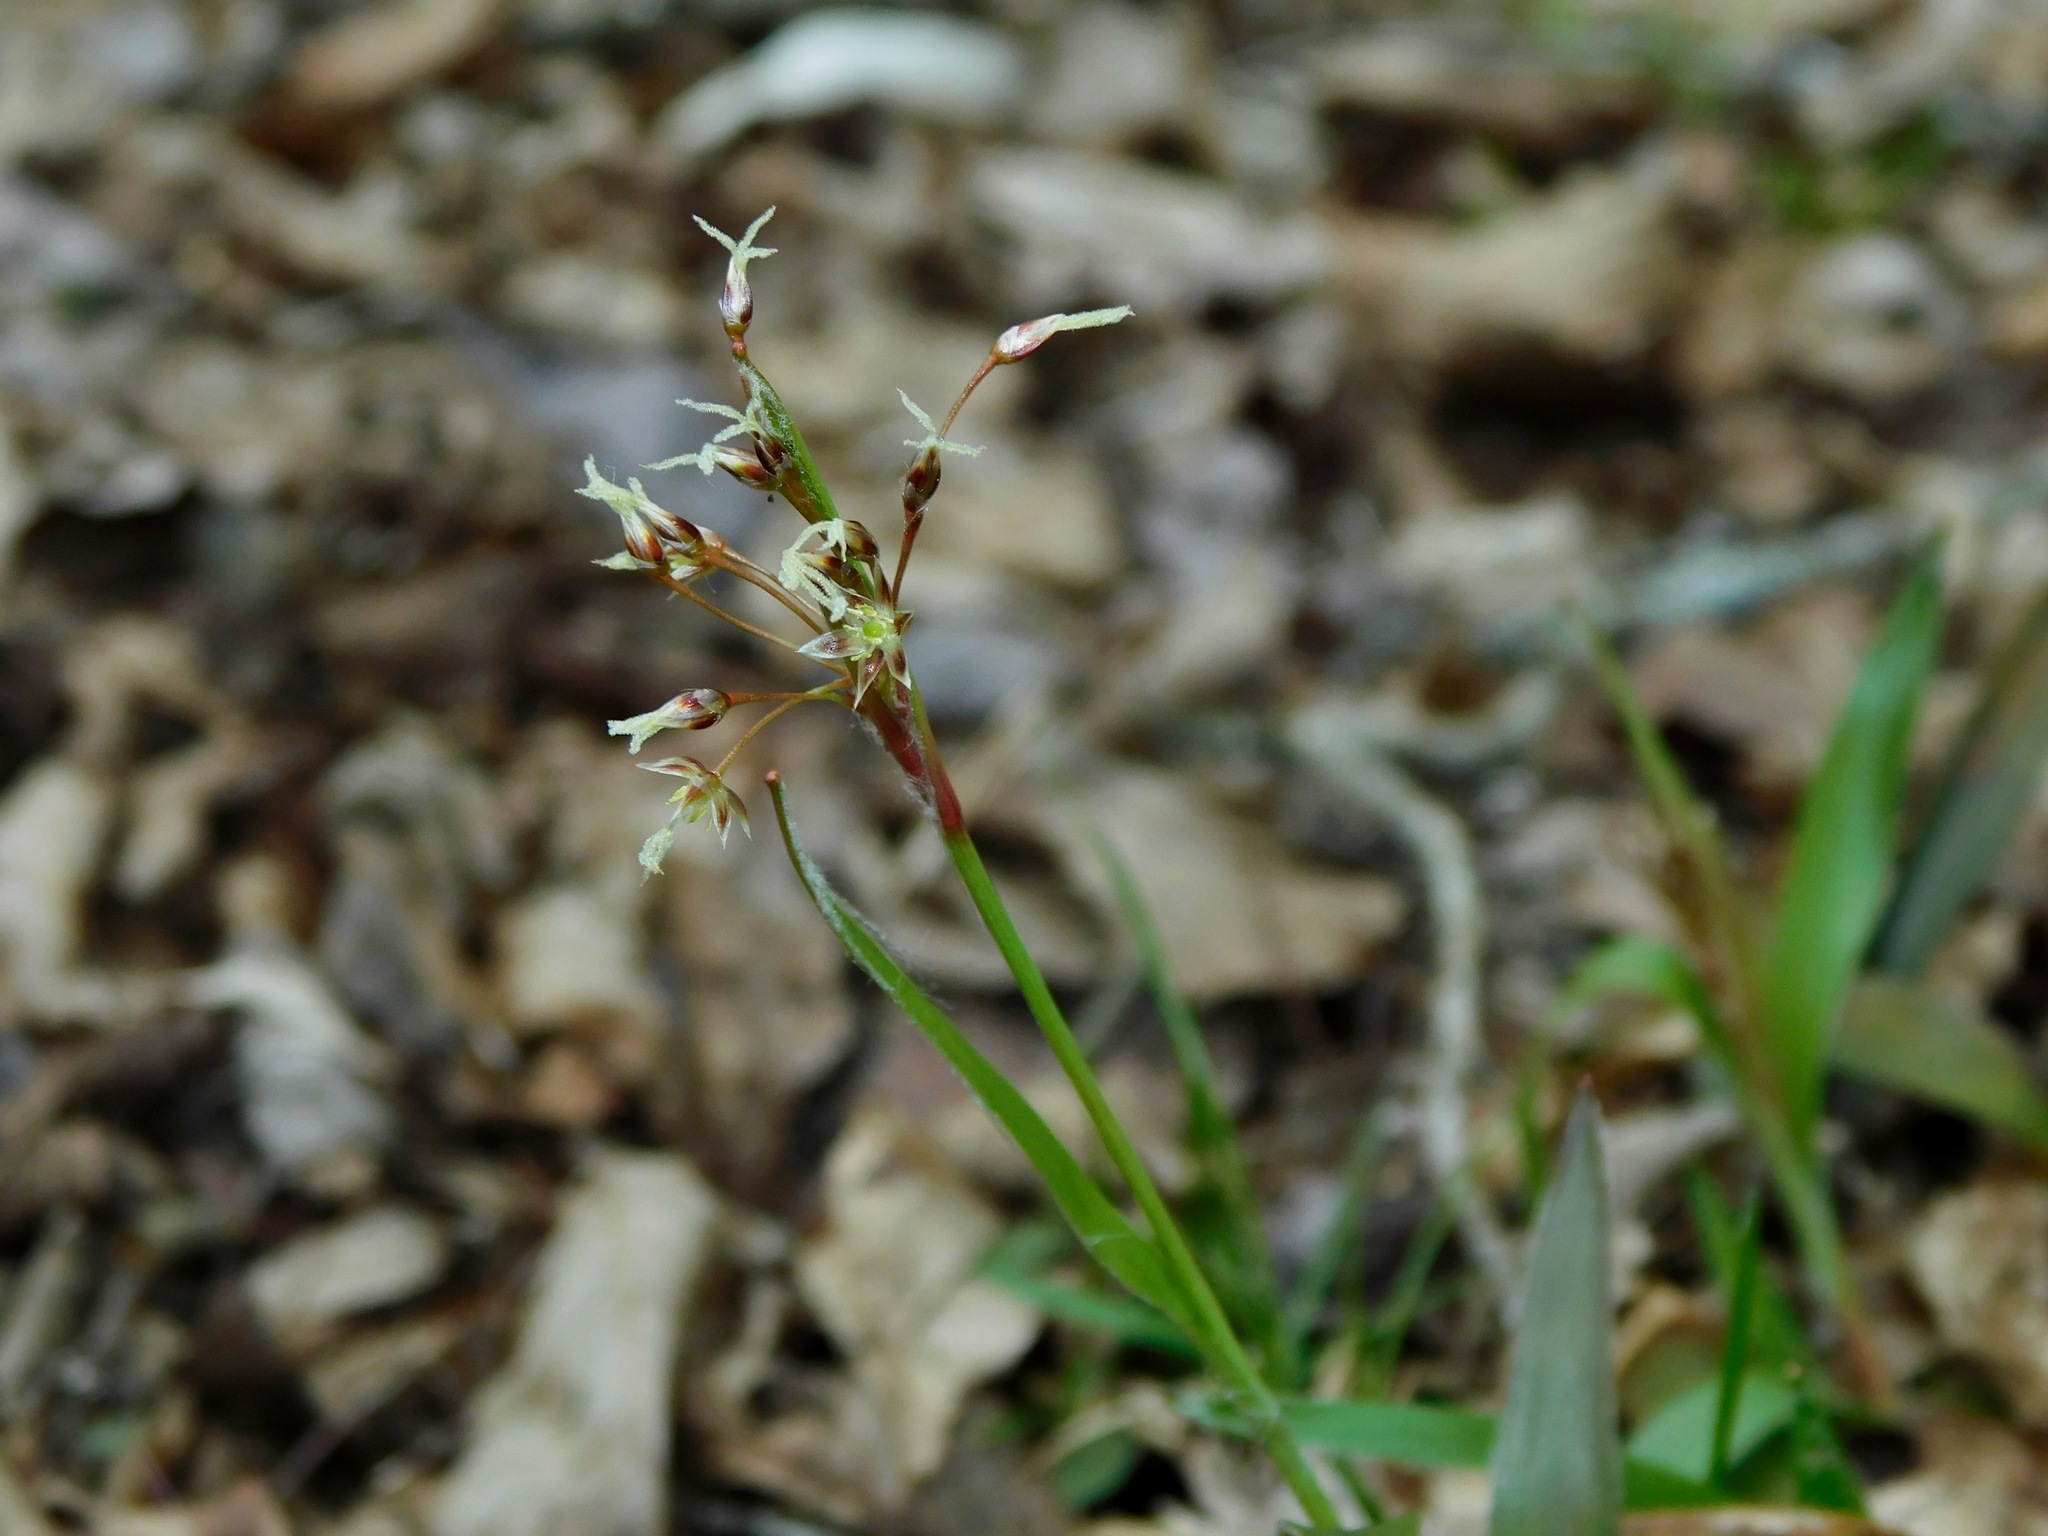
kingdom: Plantae
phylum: Tracheophyta
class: Liliopsida
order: Poales
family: Juncaceae
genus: Luzula
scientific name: Luzula acuminata
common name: Hairy woodrush
